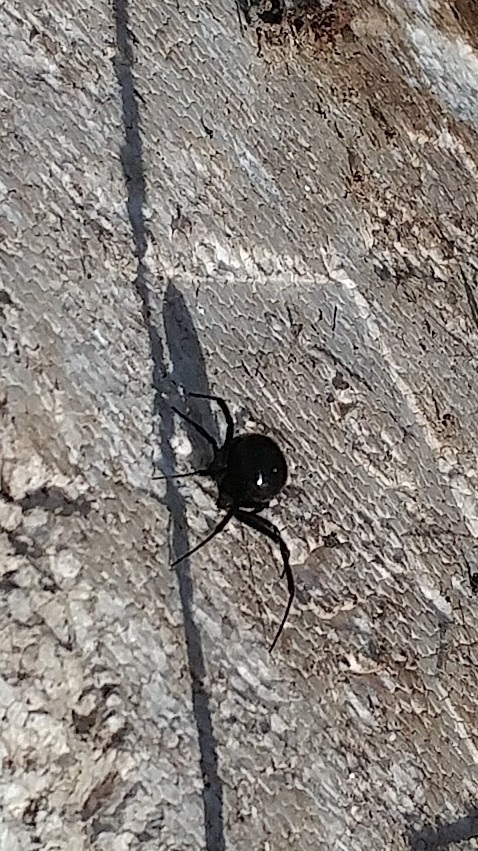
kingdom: Animalia
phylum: Arthropoda
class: Arachnida
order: Araneae
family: Theridiidae
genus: Latrodectus
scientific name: Latrodectus hesperus
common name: Western black widow
